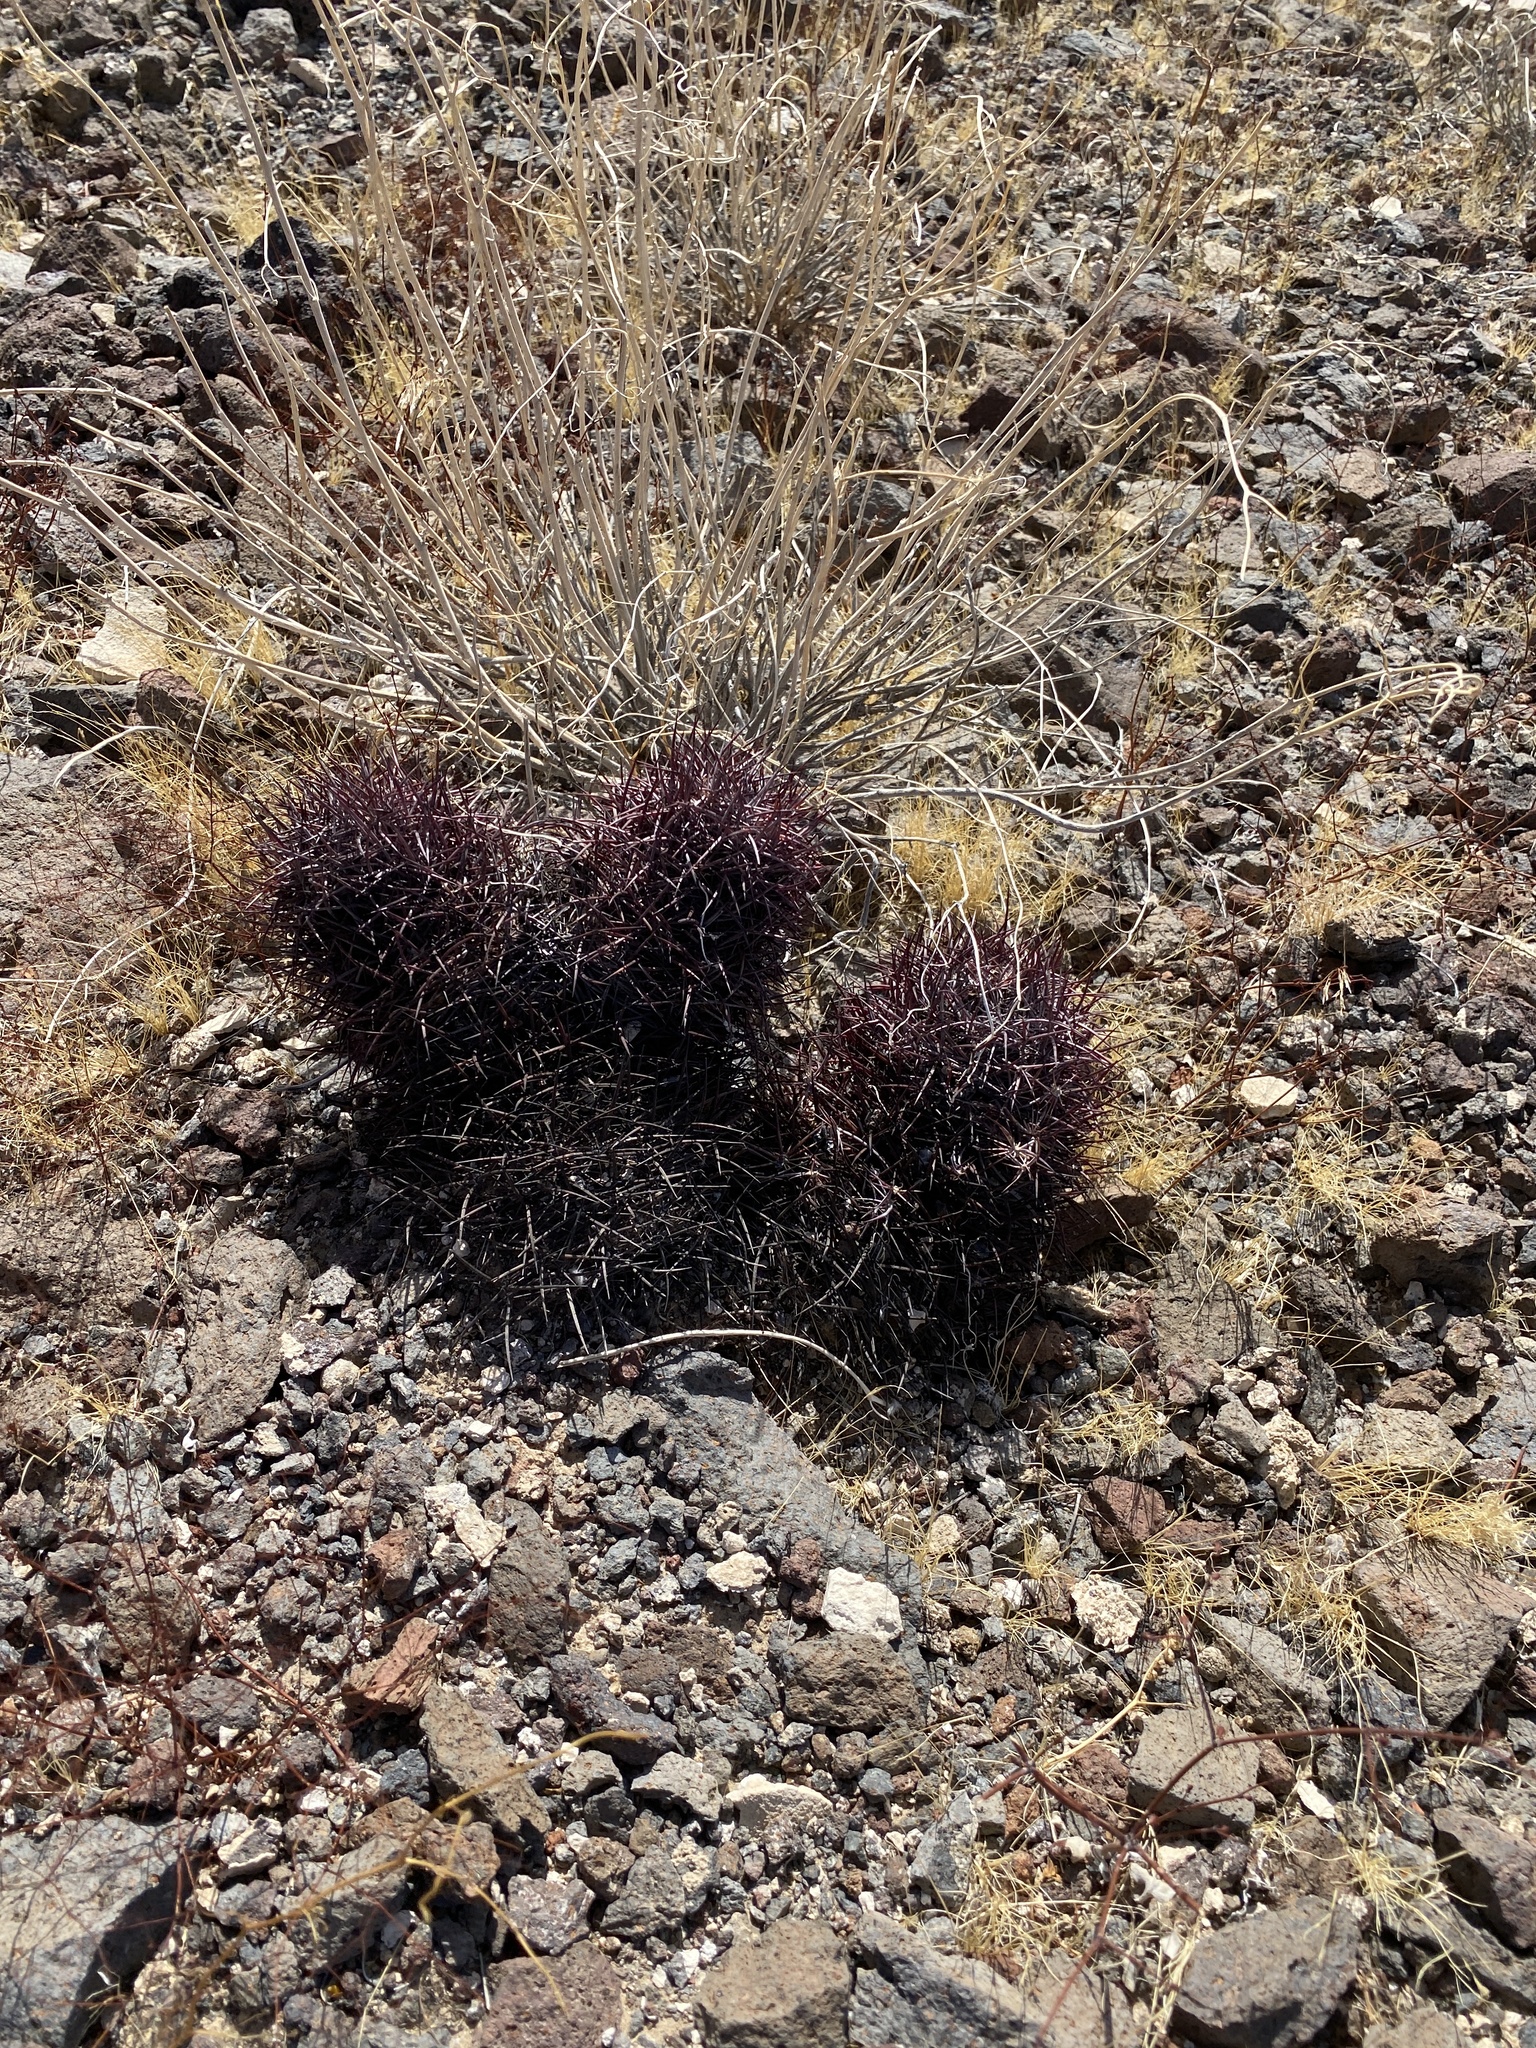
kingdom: Plantae
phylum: Tracheophyta
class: Magnoliopsida
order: Caryophyllales
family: Cactaceae
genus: Sclerocactus
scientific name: Sclerocactus johnsonii
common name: Eight-spine fishhook cactus
